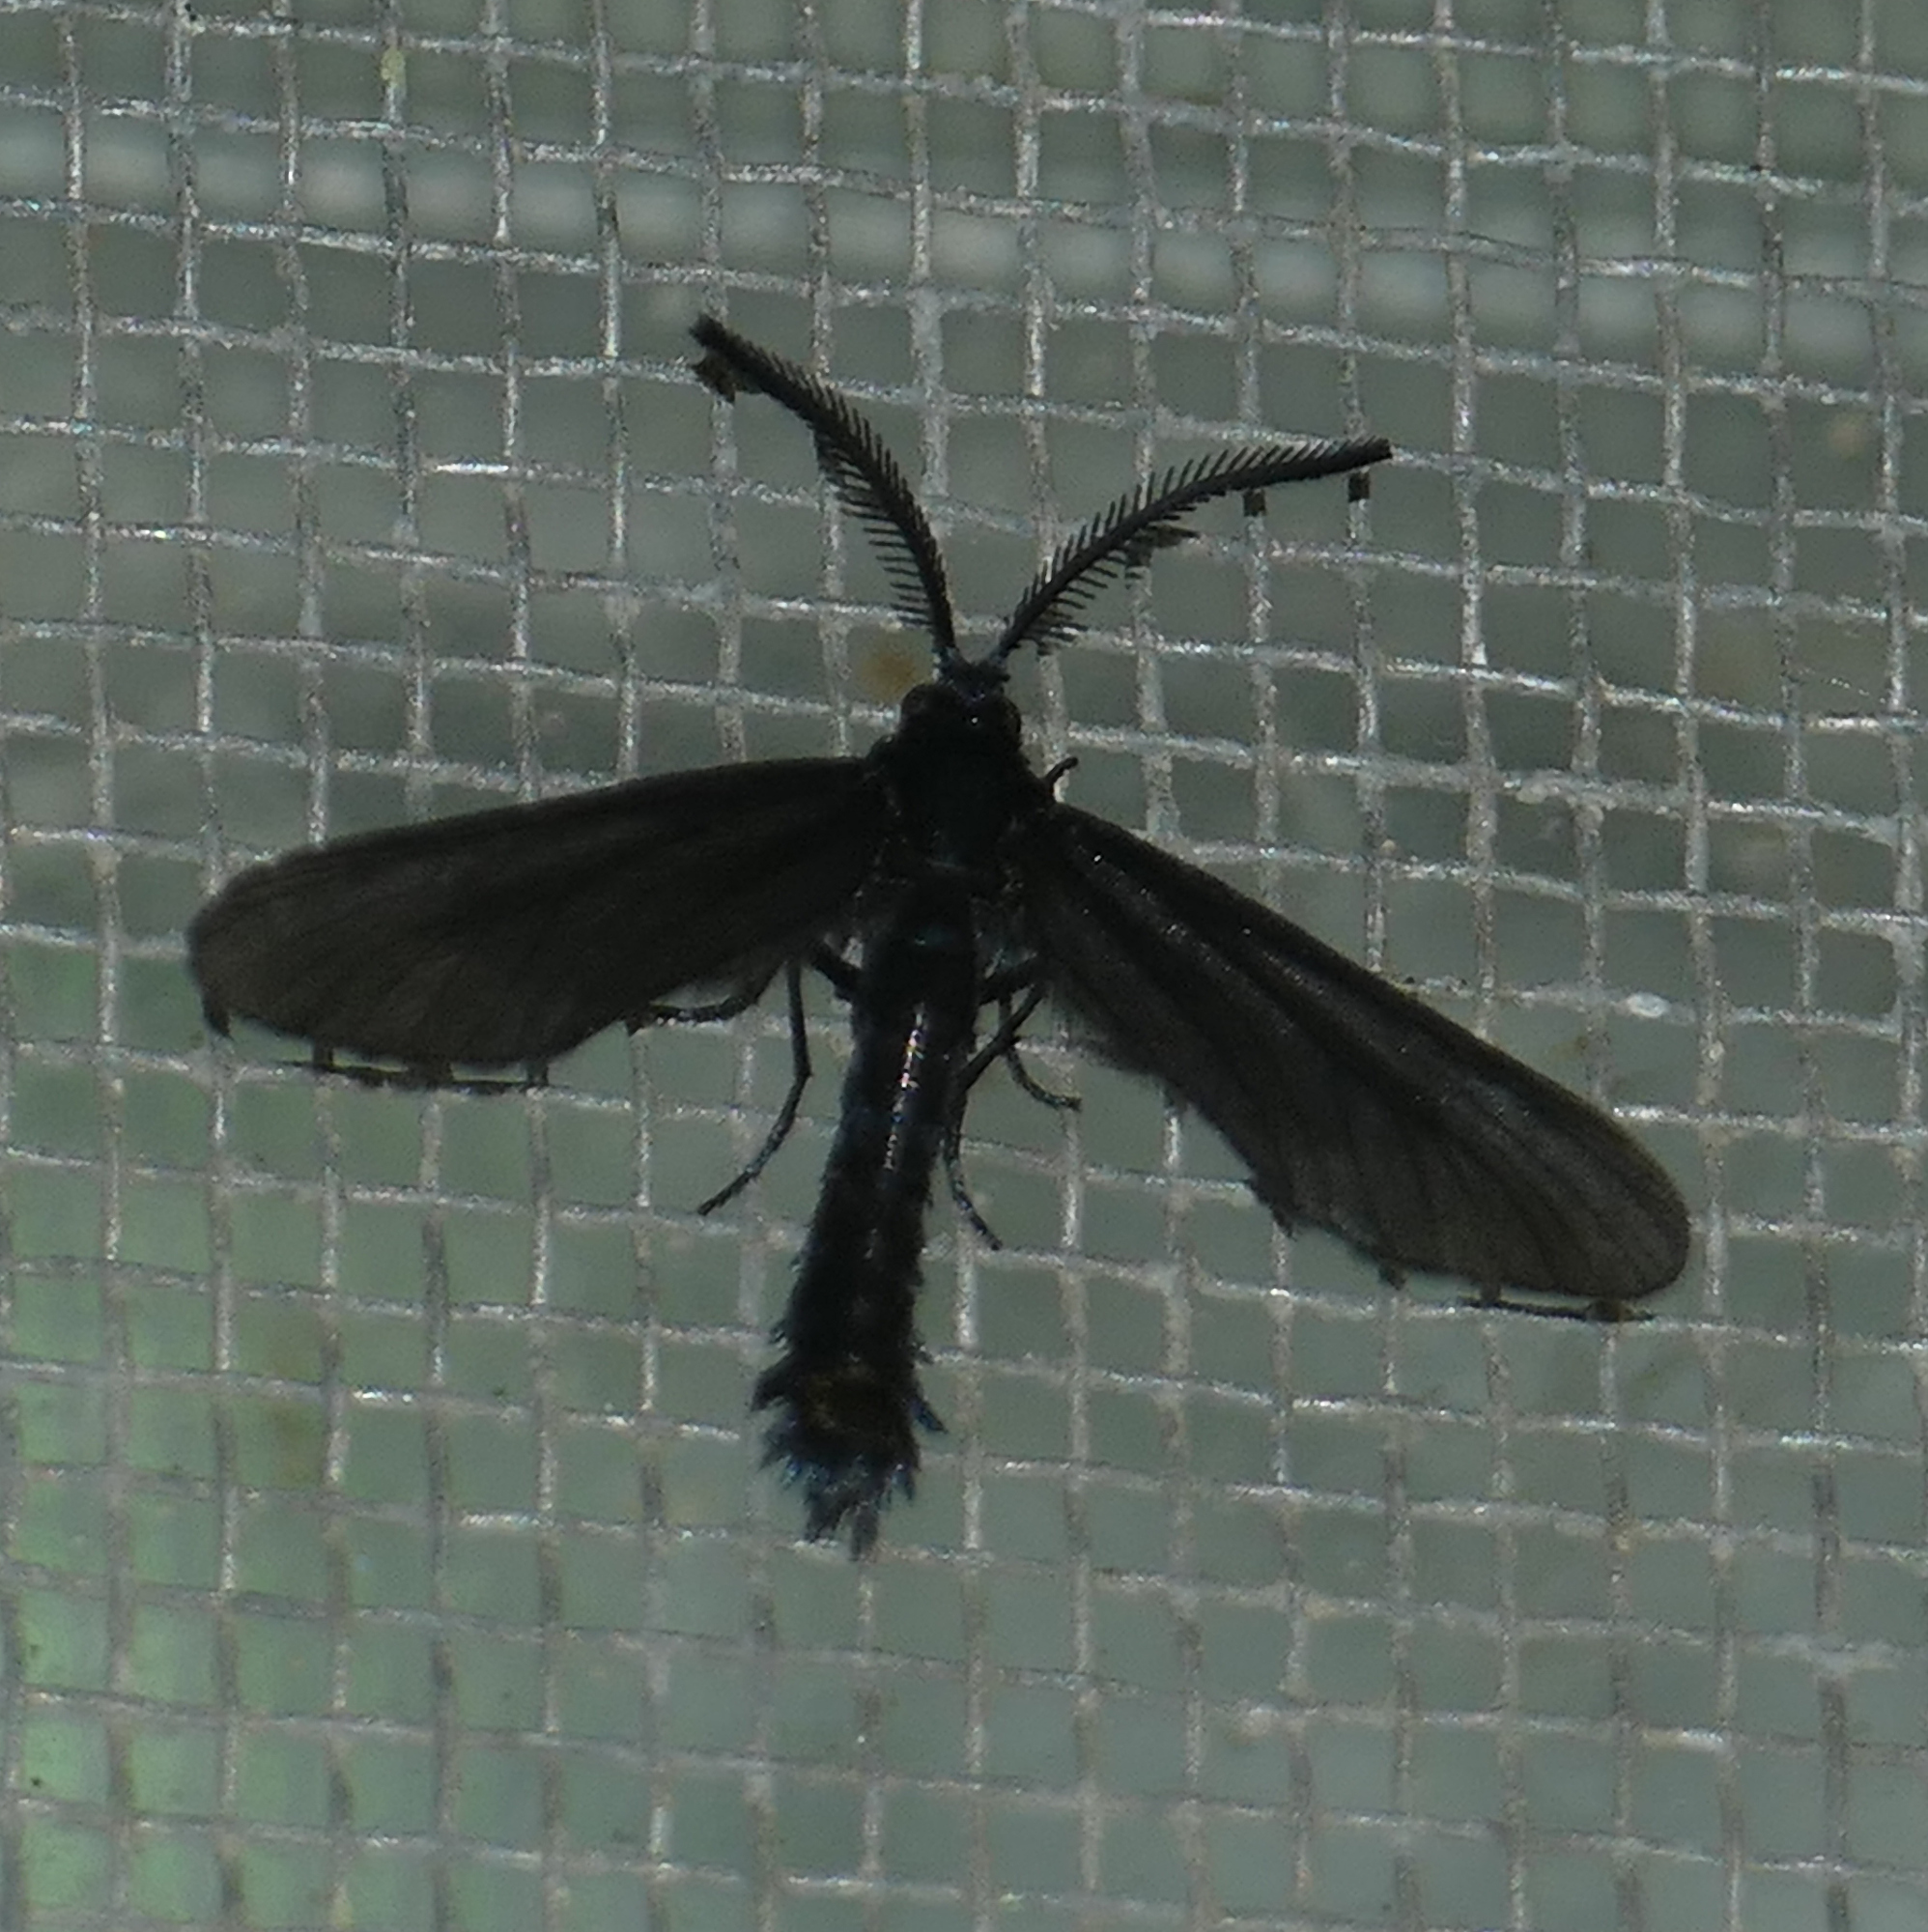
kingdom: Animalia
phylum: Arthropoda
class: Insecta
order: Lepidoptera
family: Zygaenidae
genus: Harrisina
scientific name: Harrisina coracina
